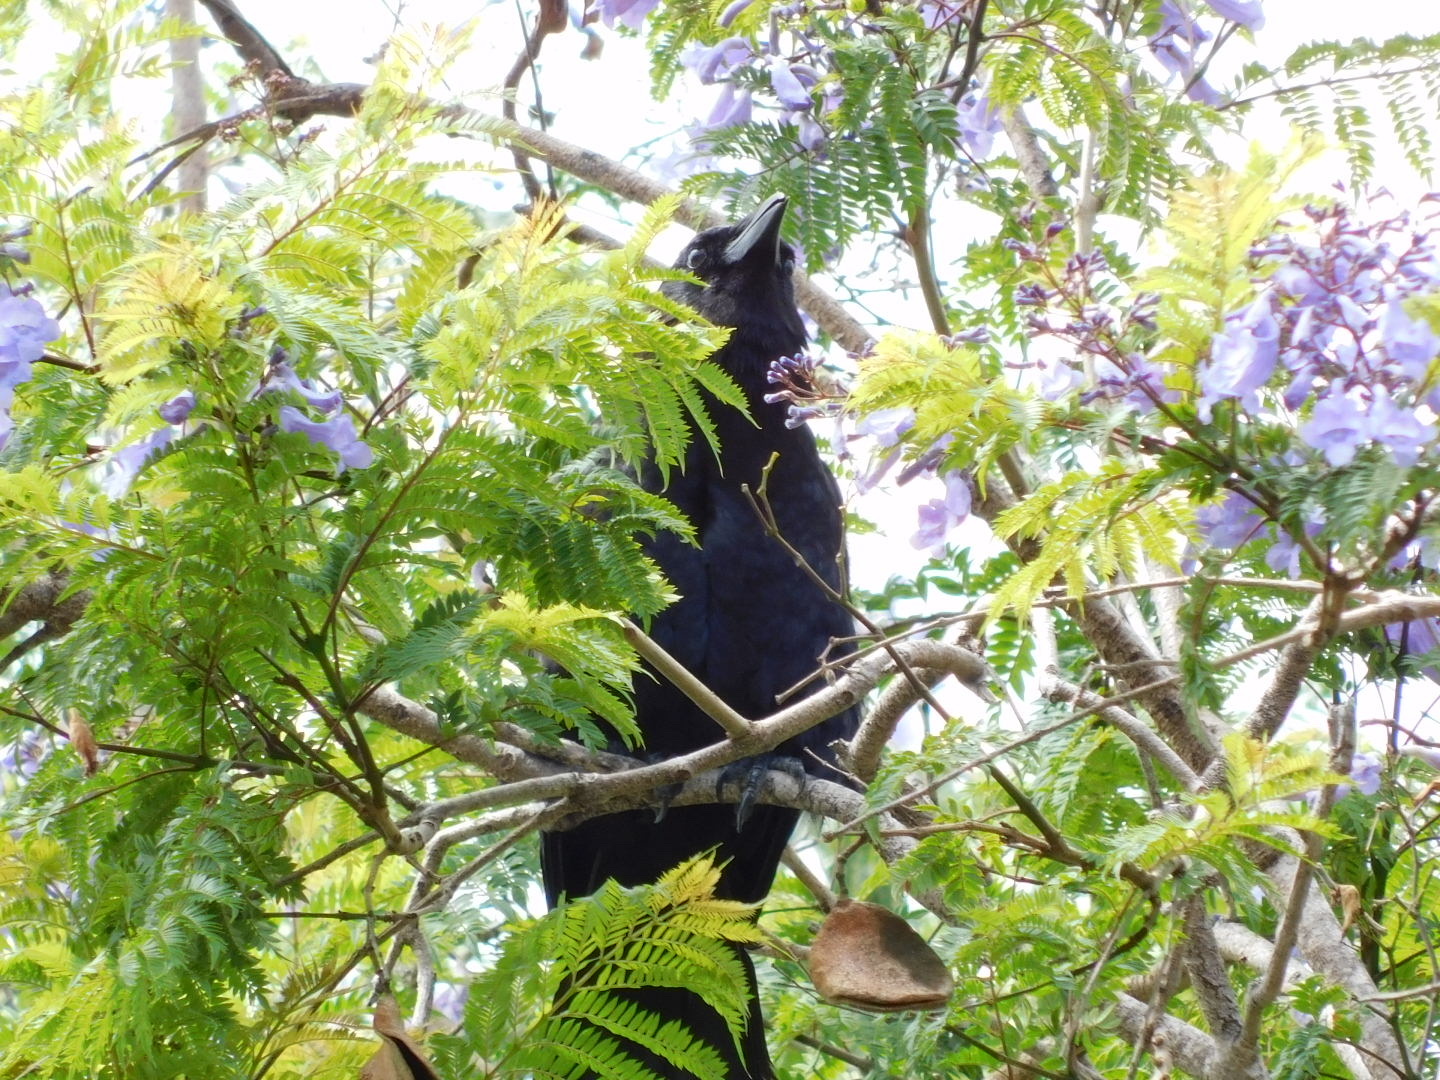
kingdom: Animalia
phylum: Chordata
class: Aves
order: Passeriformes
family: Corvidae
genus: Corvus
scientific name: Corvus brachyrhynchos
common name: American crow
